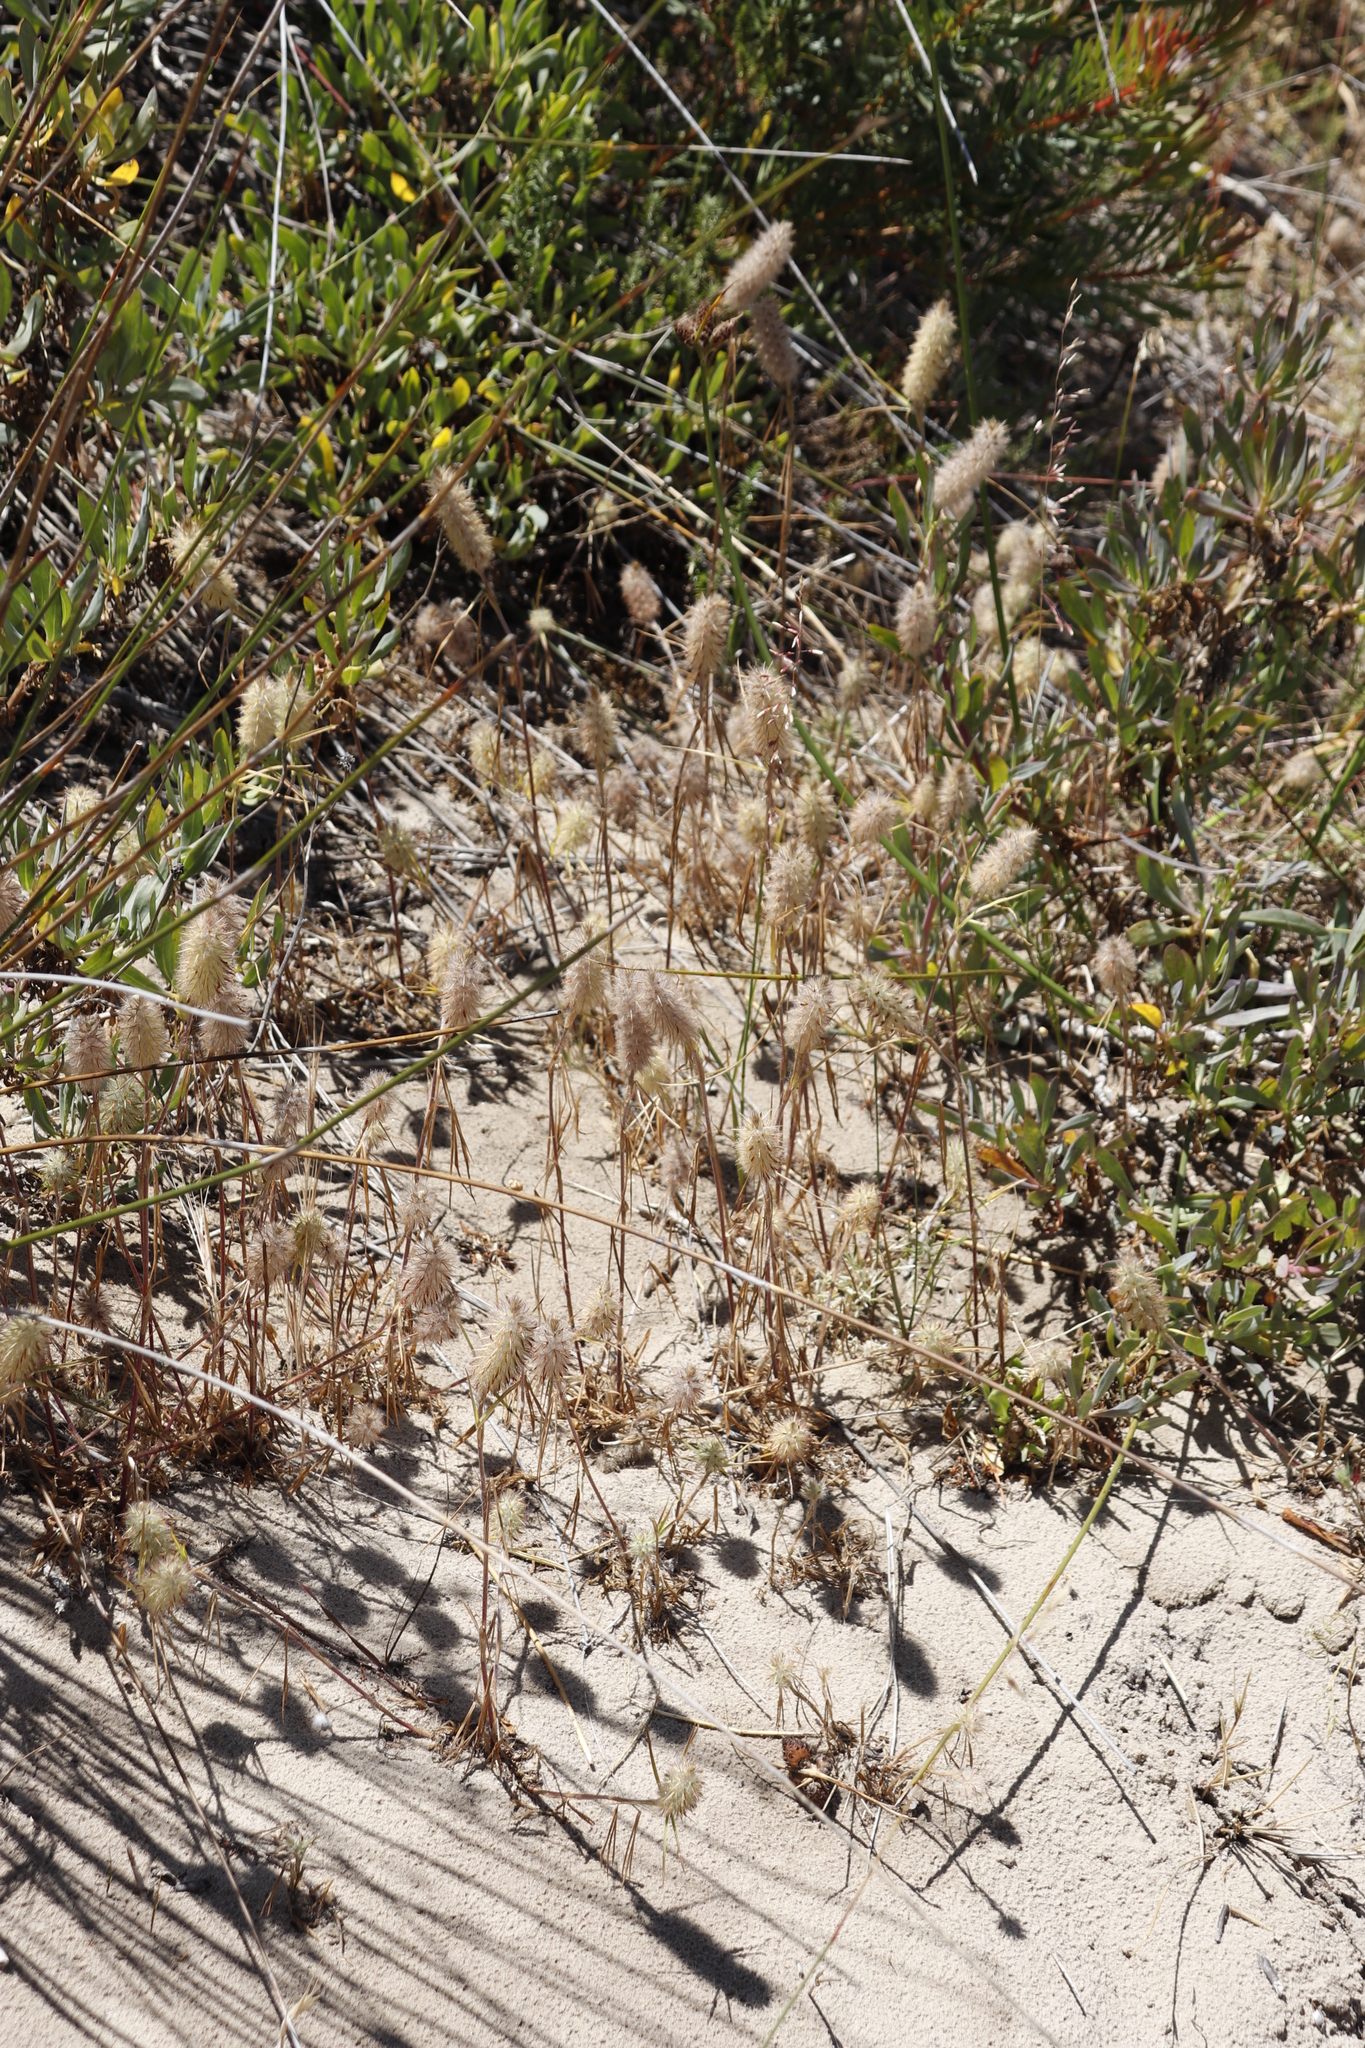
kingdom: Plantae
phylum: Tracheophyta
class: Magnoliopsida
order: Fabales
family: Fabaceae
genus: Trifolium
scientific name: Trifolium angustifolium
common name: Narrow clover
